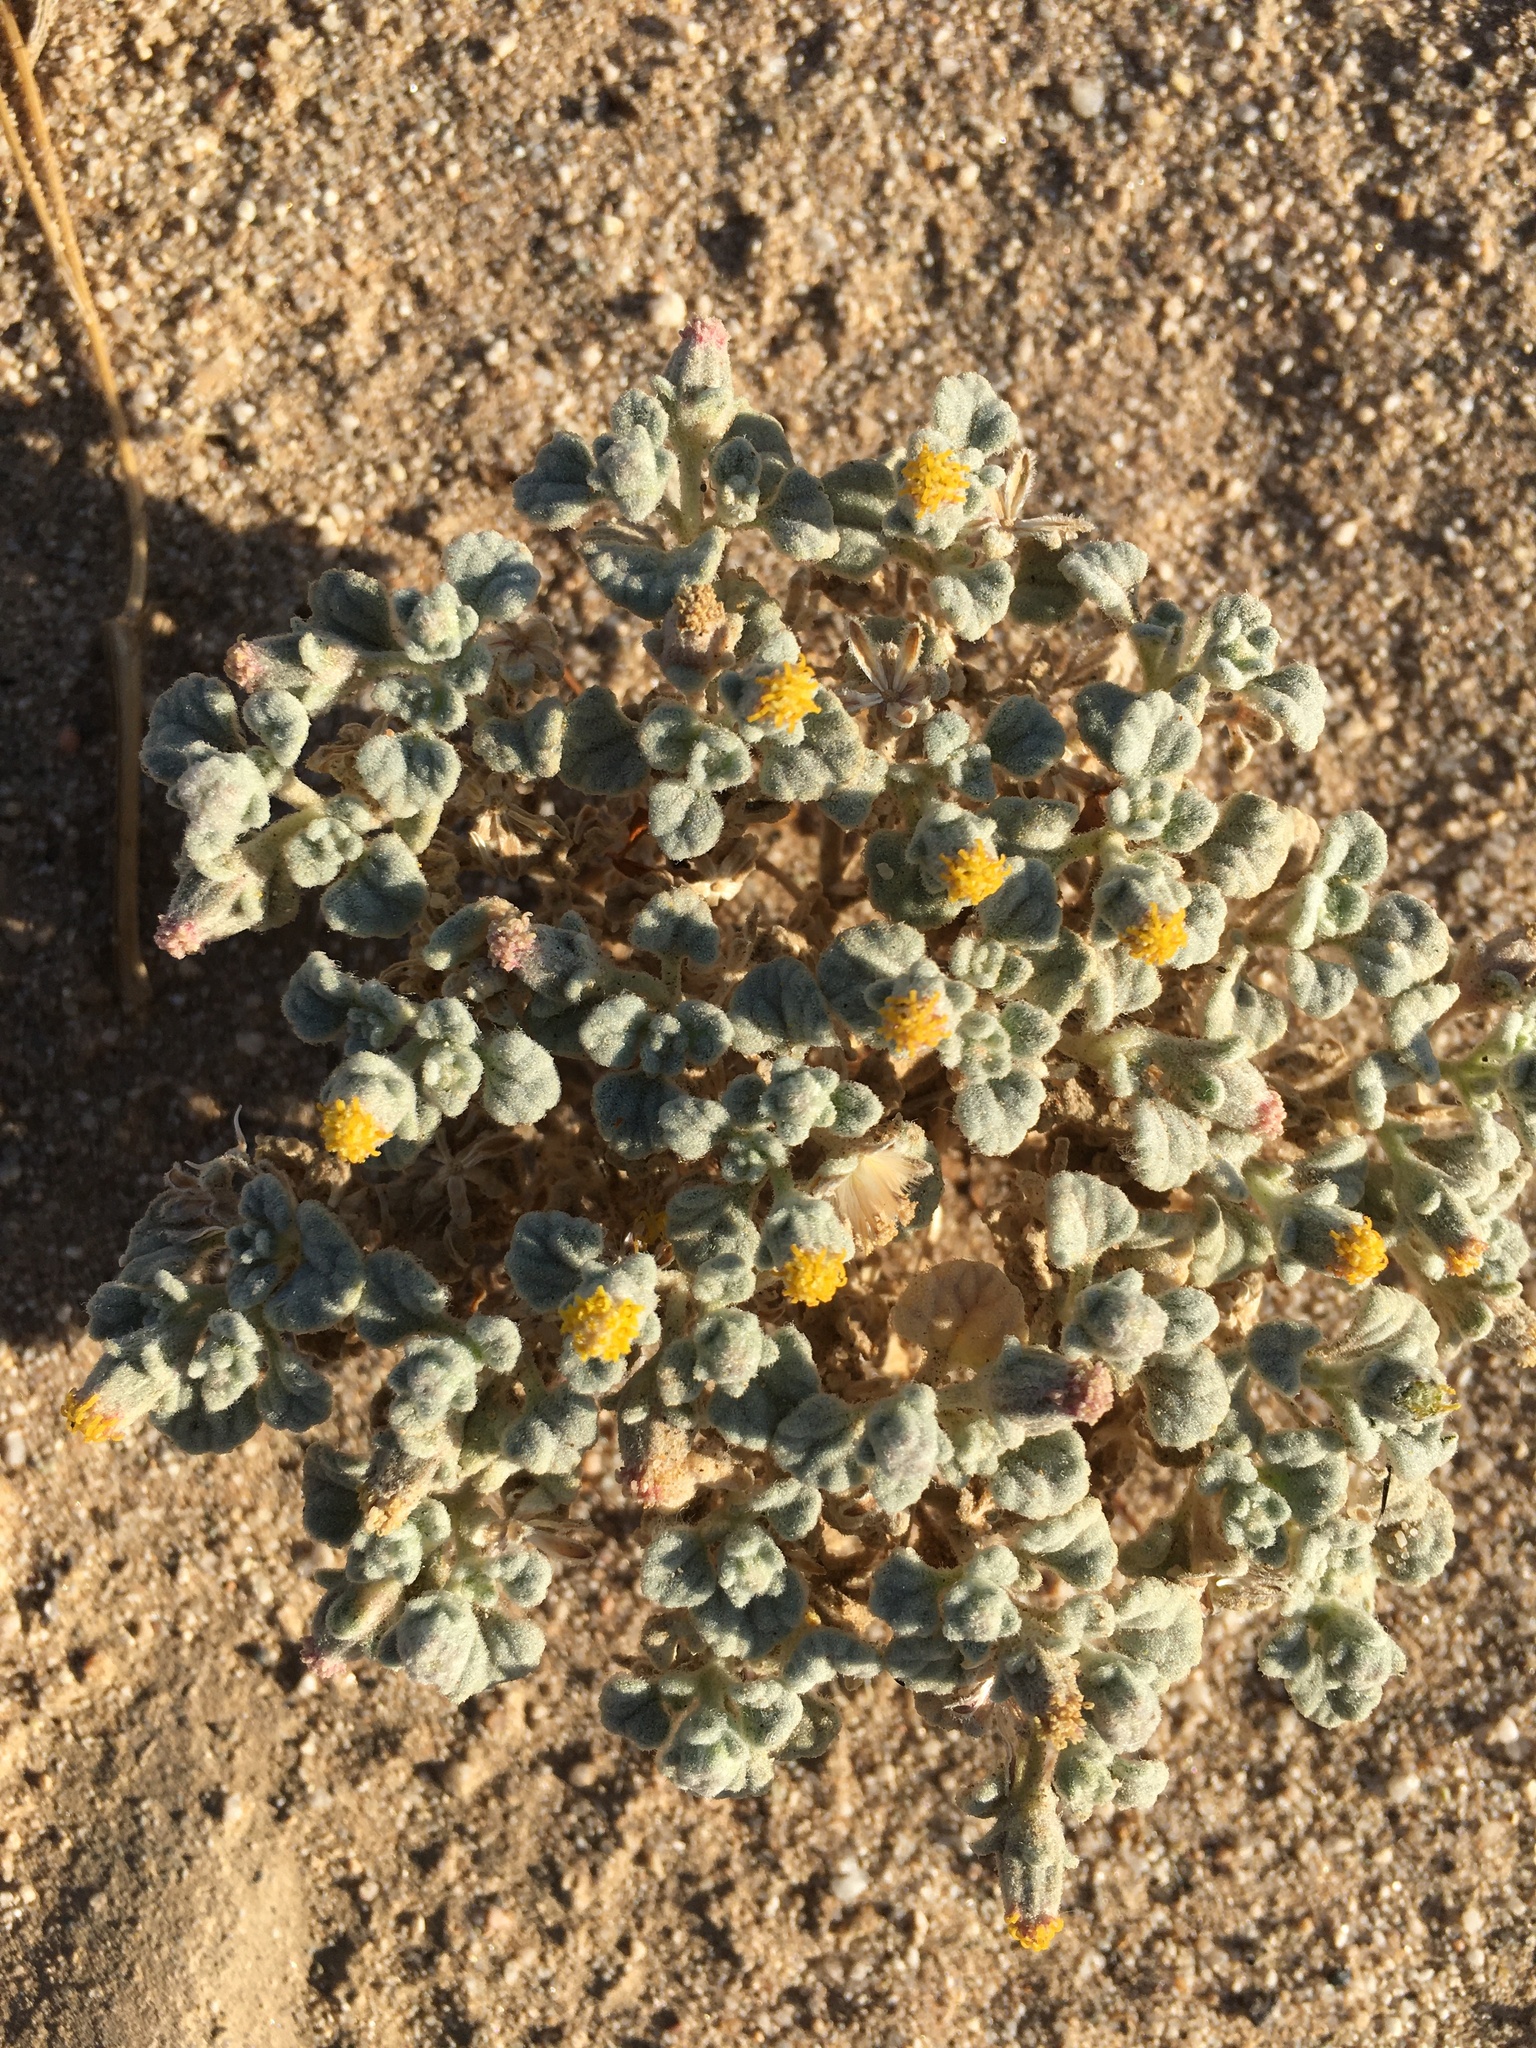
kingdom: Plantae
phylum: Tracheophyta
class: Magnoliopsida
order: Asterales
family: Asteraceae
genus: Psathyrotes
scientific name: Psathyrotes ramosissima
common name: Turtleback
